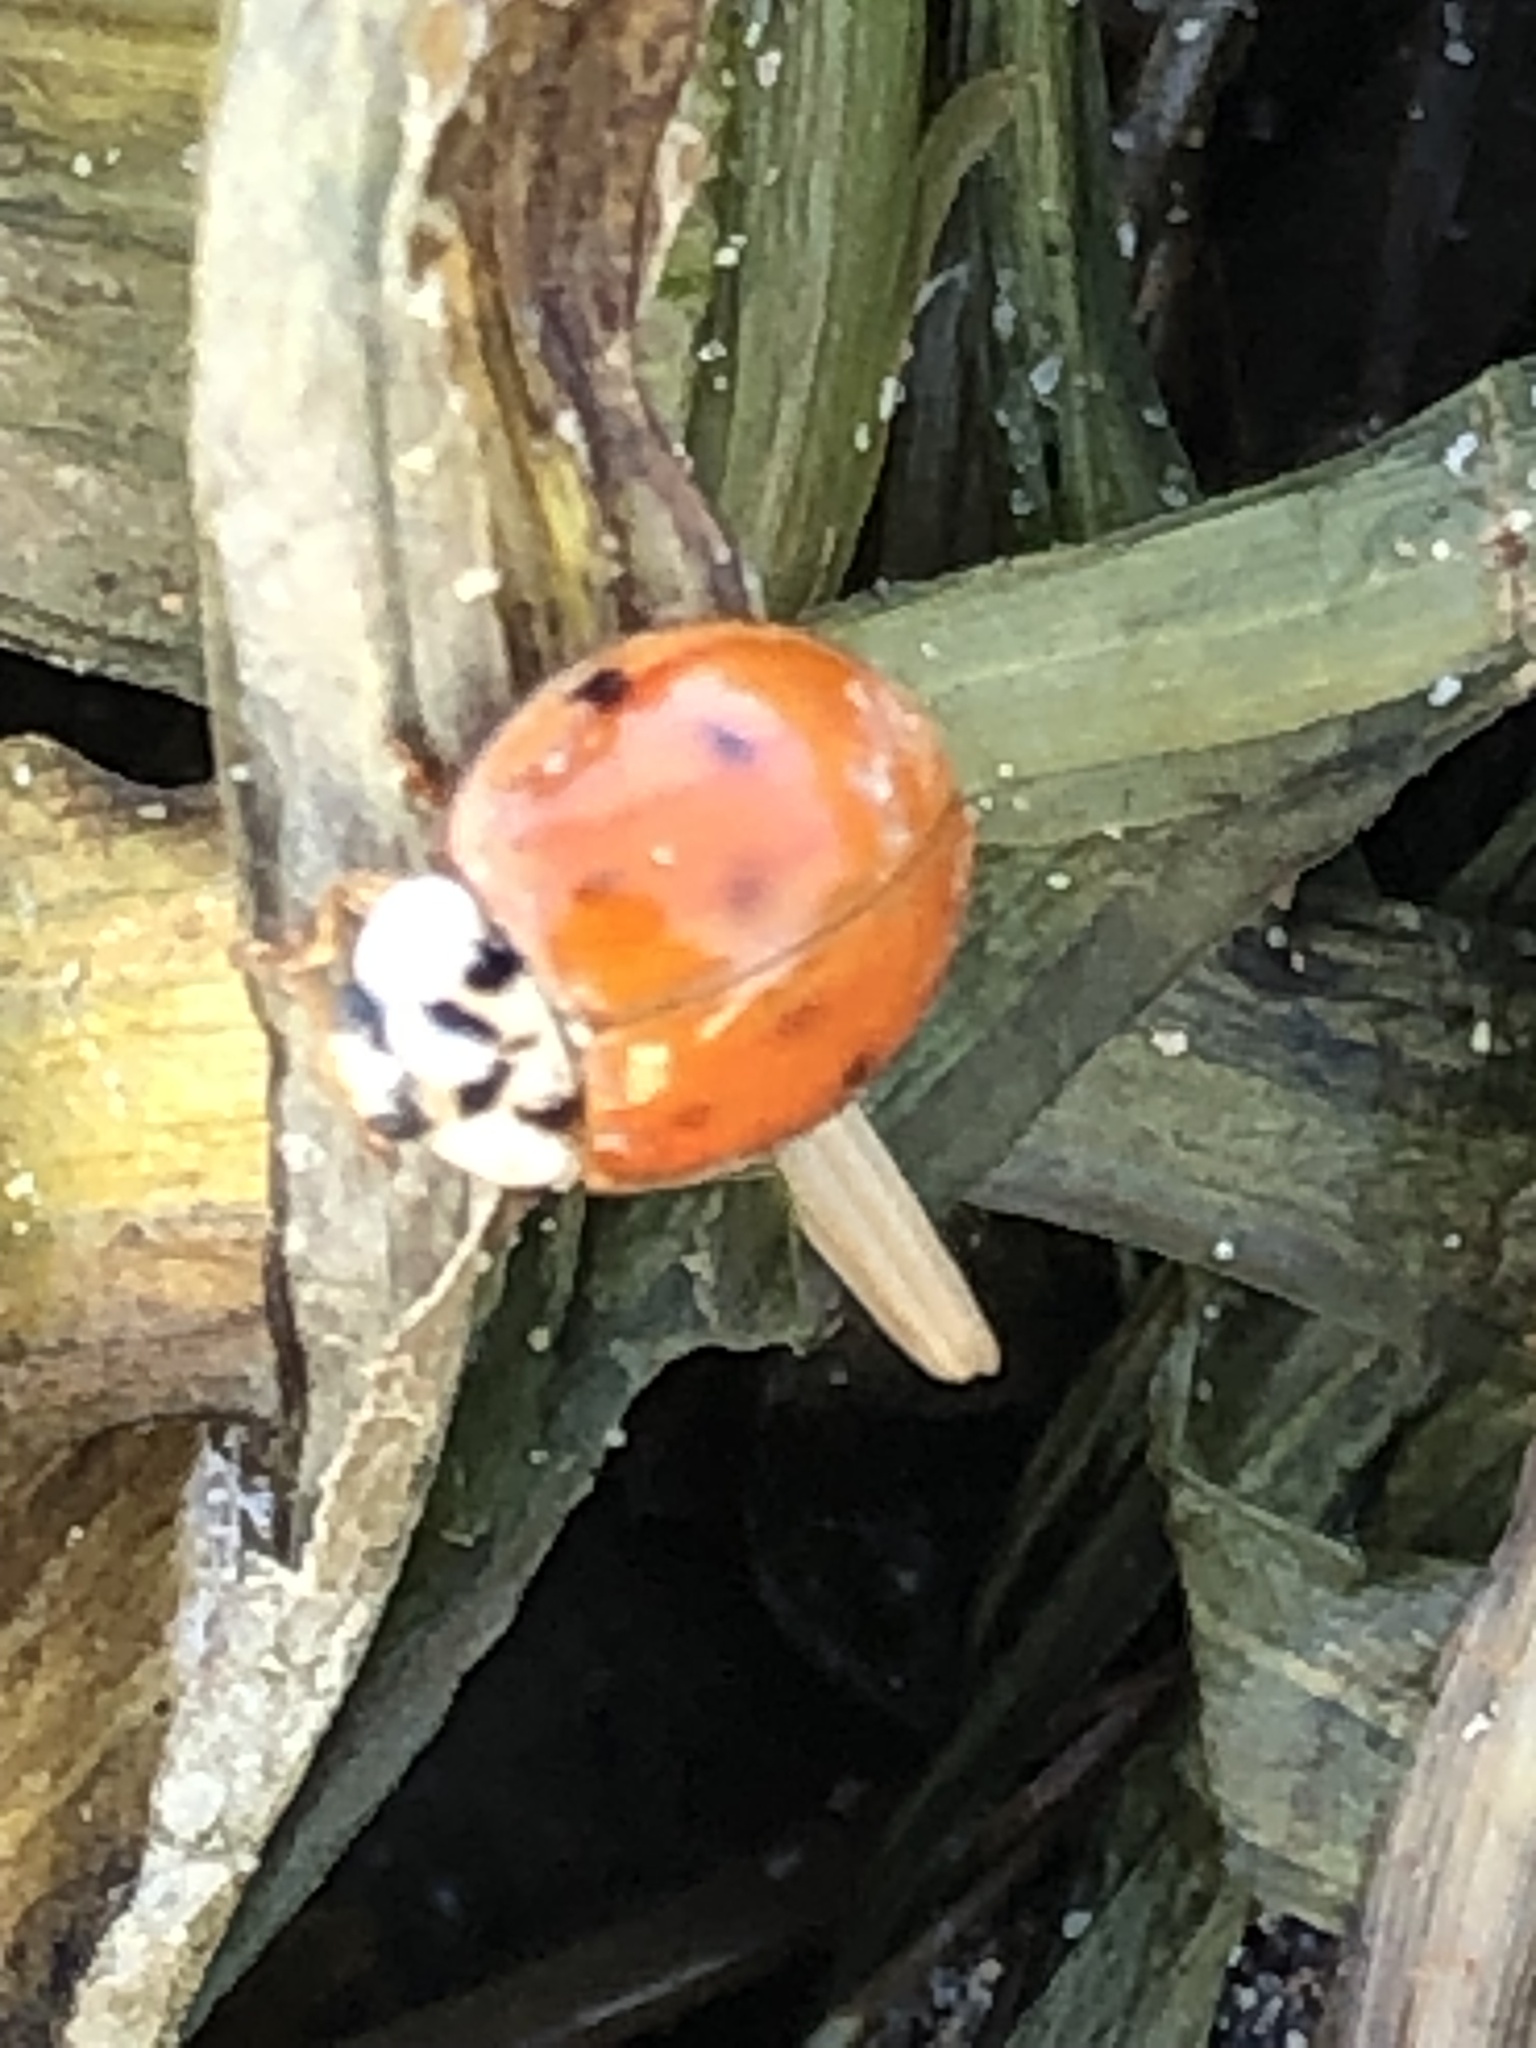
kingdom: Animalia
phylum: Arthropoda
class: Insecta
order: Coleoptera
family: Coccinellidae
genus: Harmonia
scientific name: Harmonia axyridis
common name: Harlequin ladybird
